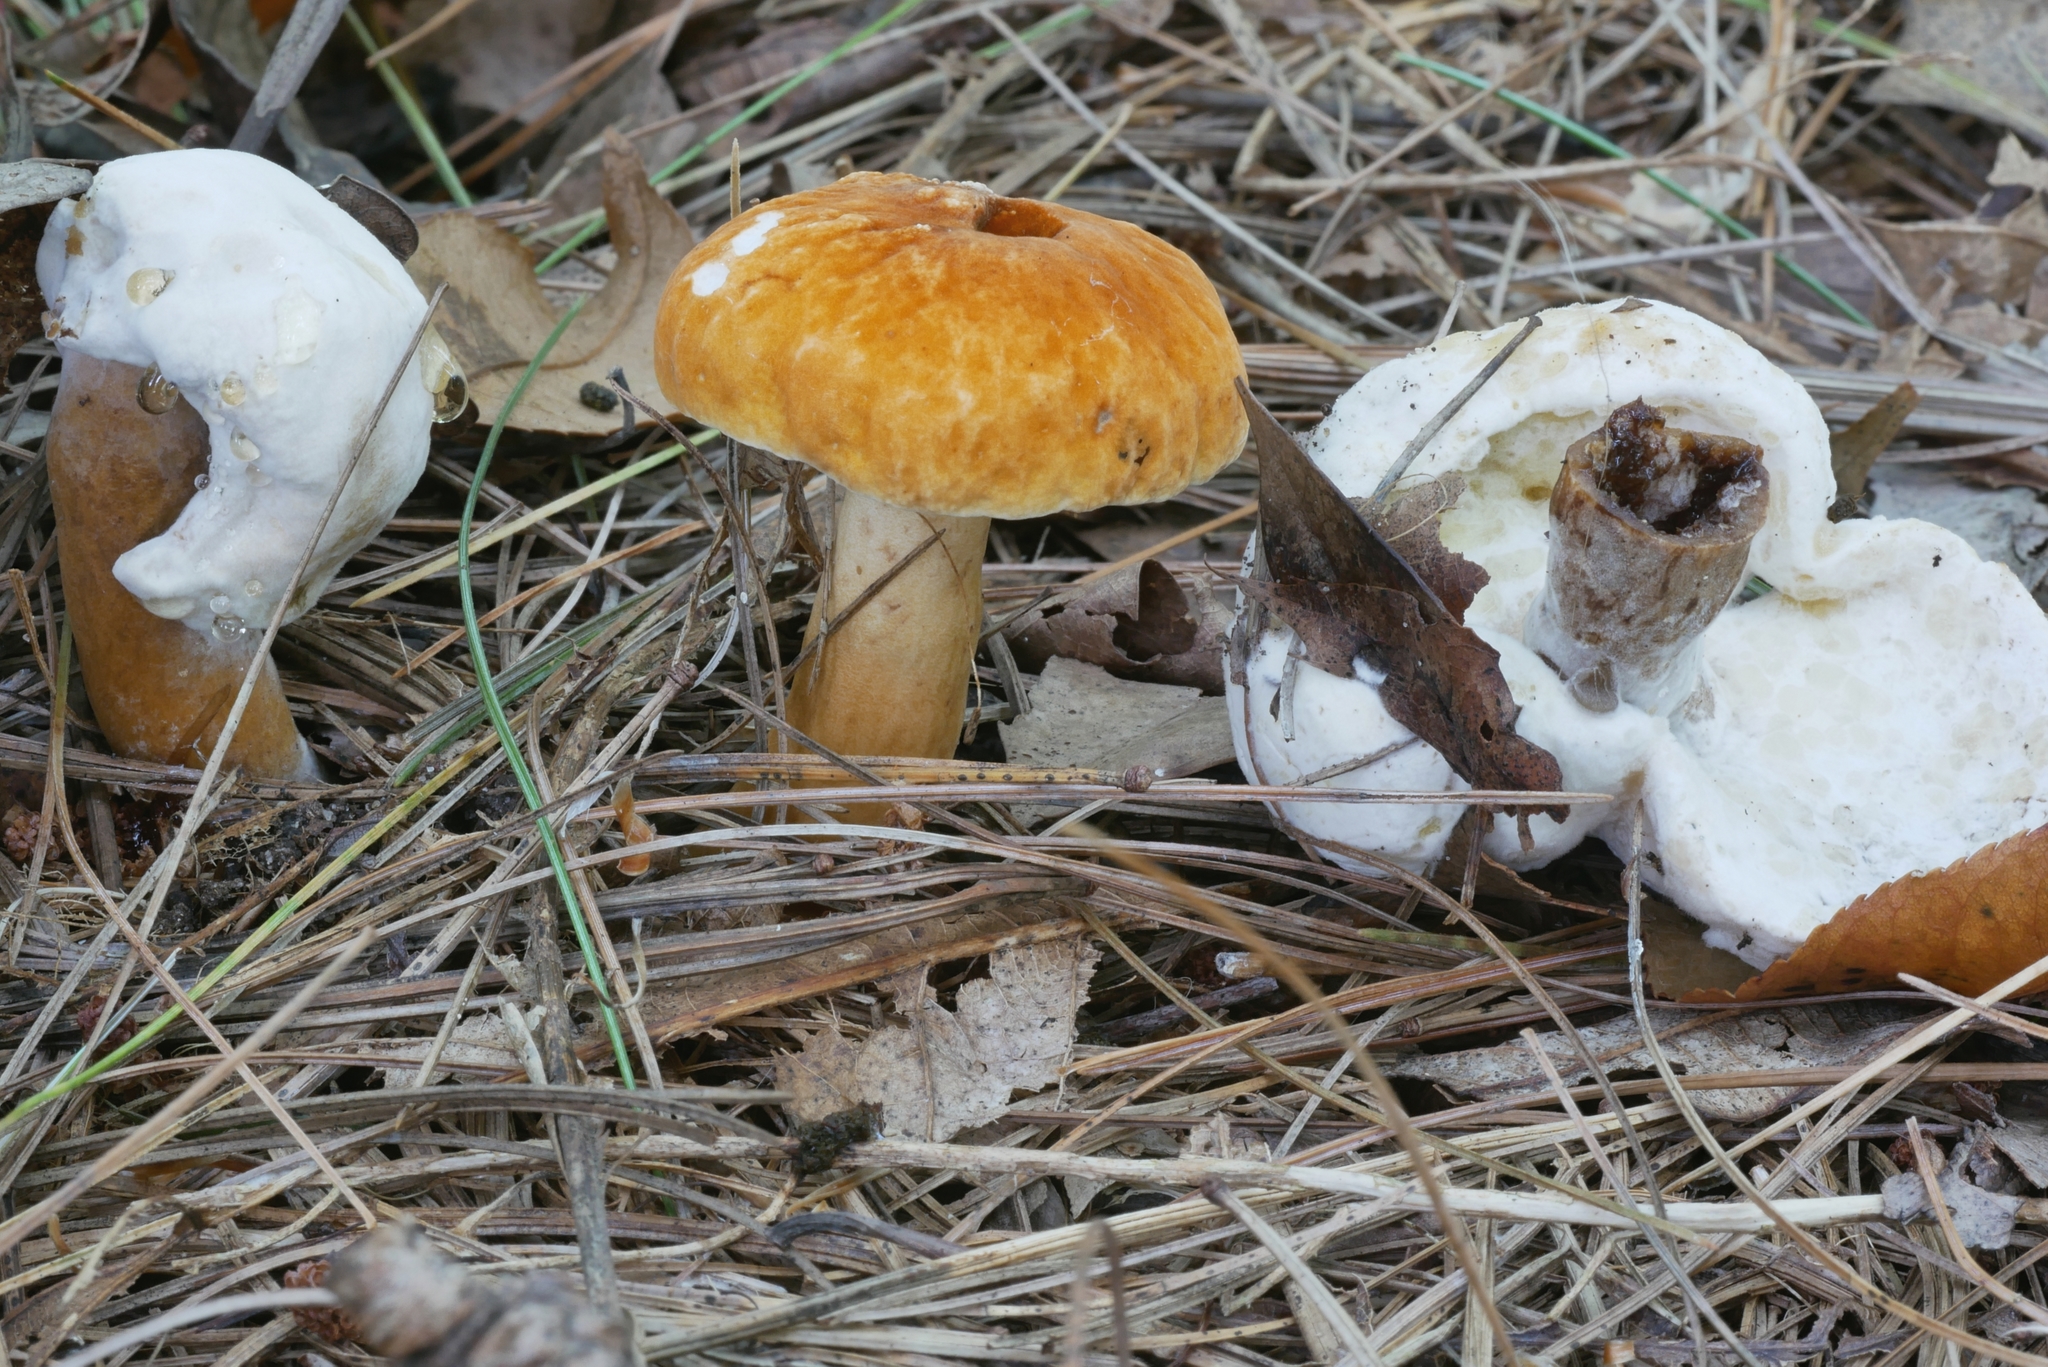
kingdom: Fungi
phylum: Ascomycota
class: Sordariomycetes
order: Hypocreales
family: Hypocreaceae
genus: Hypomyces
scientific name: Hypomyces chlorinus
